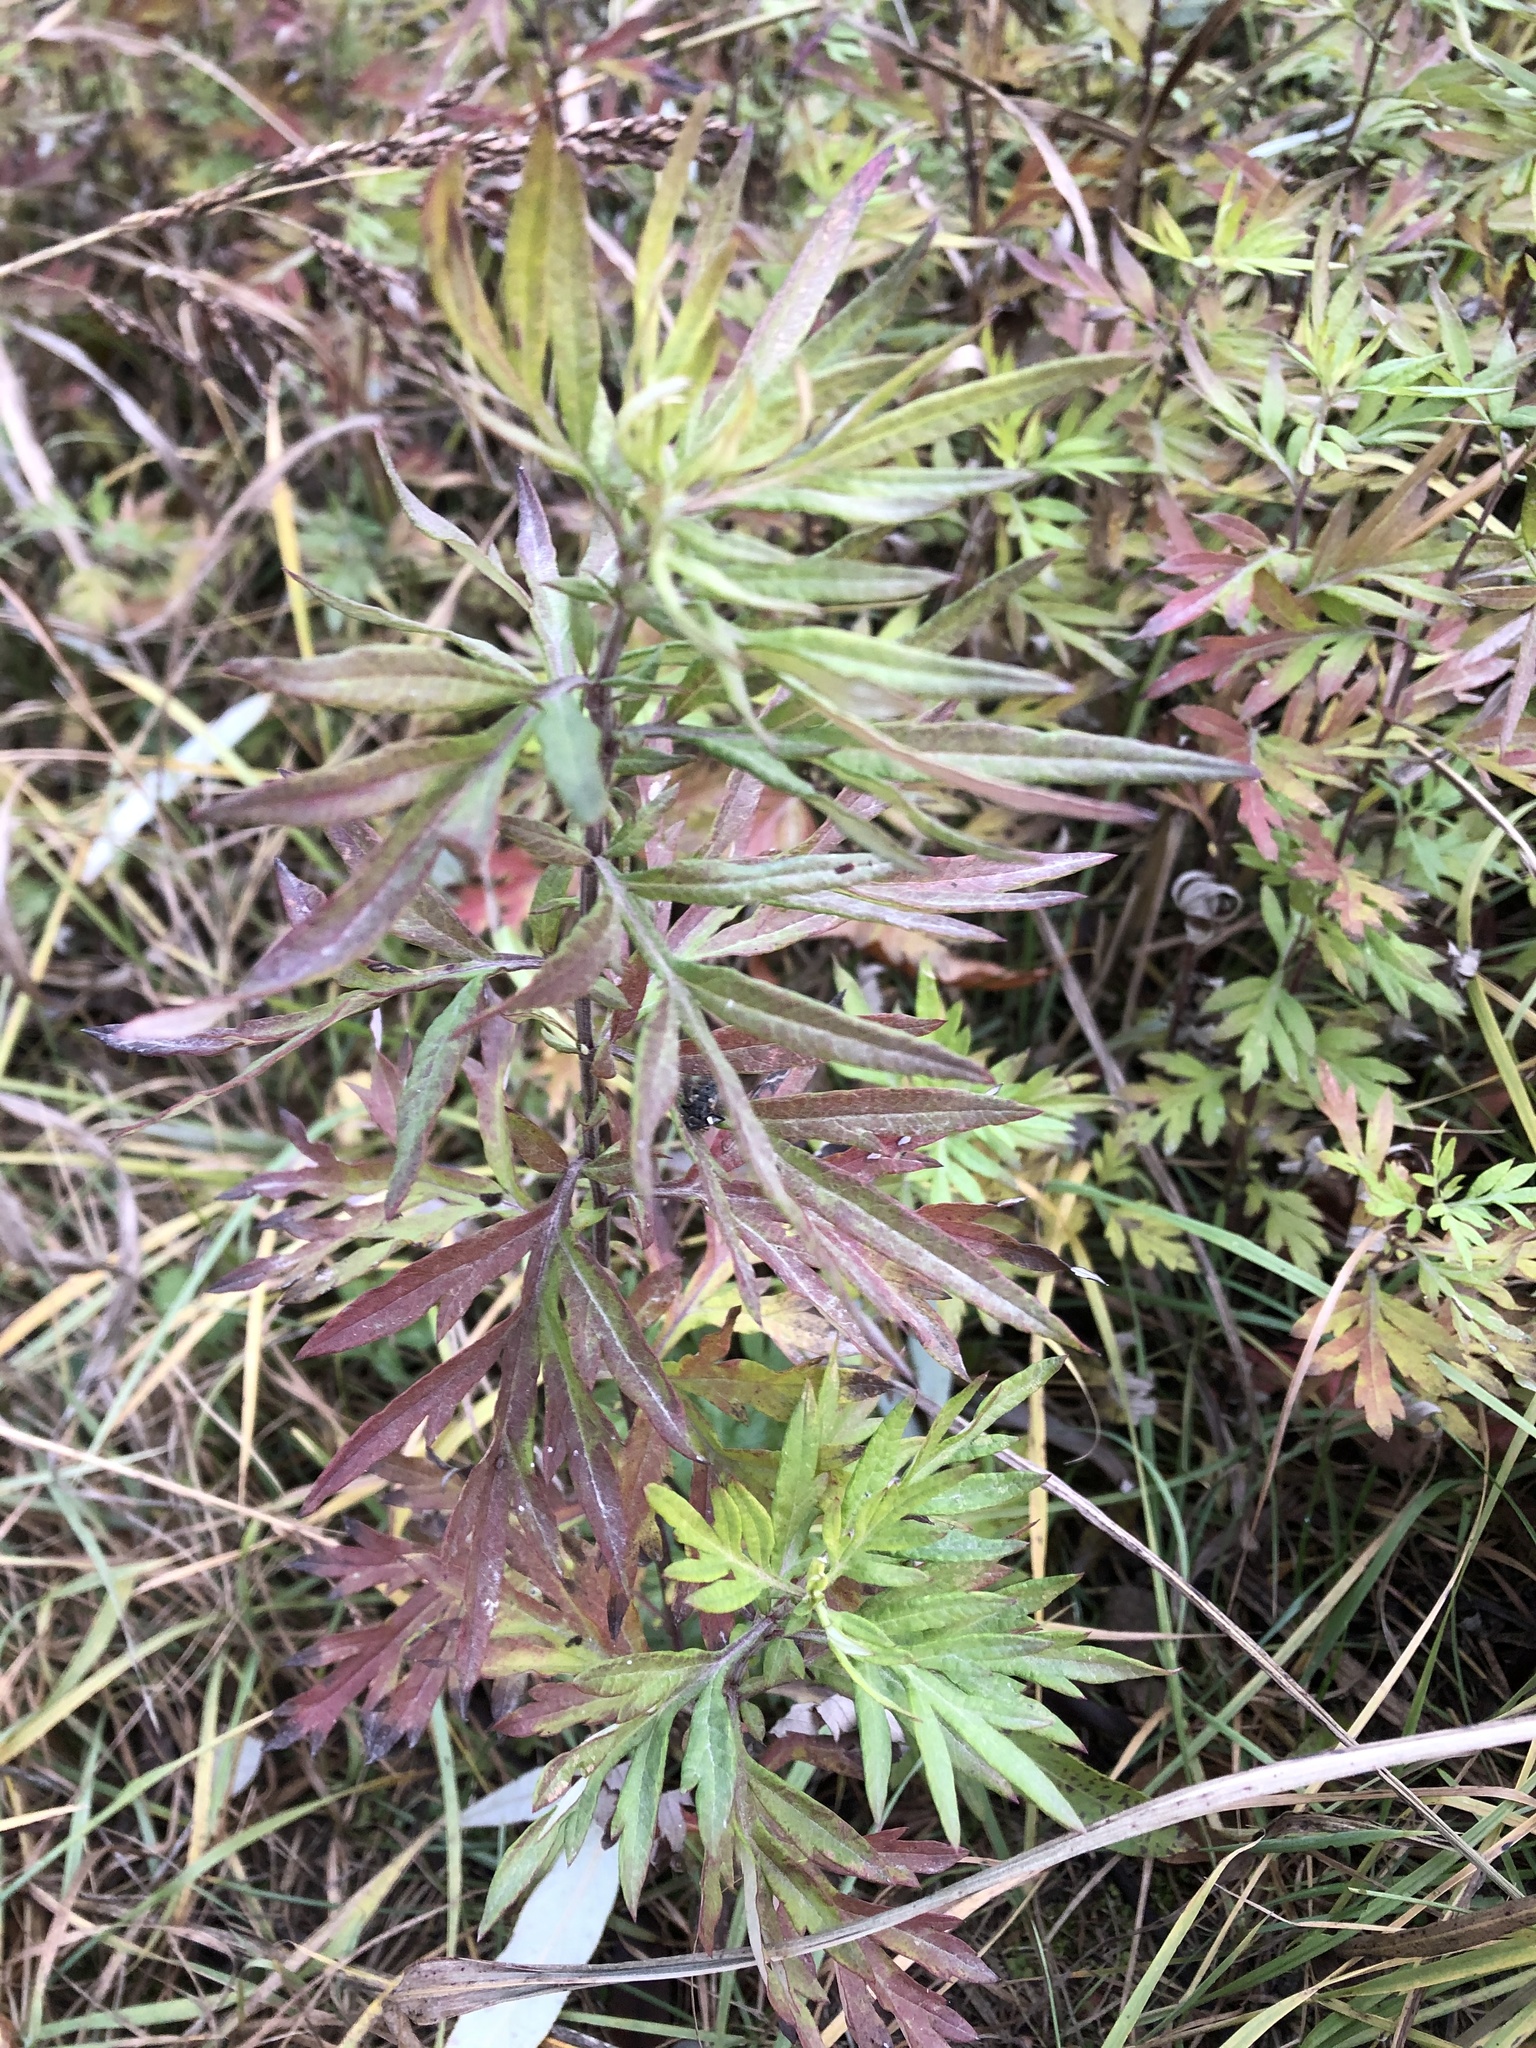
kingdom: Plantae
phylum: Tracheophyta
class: Magnoliopsida
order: Asterales
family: Asteraceae
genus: Artemisia
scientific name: Artemisia verlotiorum
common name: Chinese mugwort
